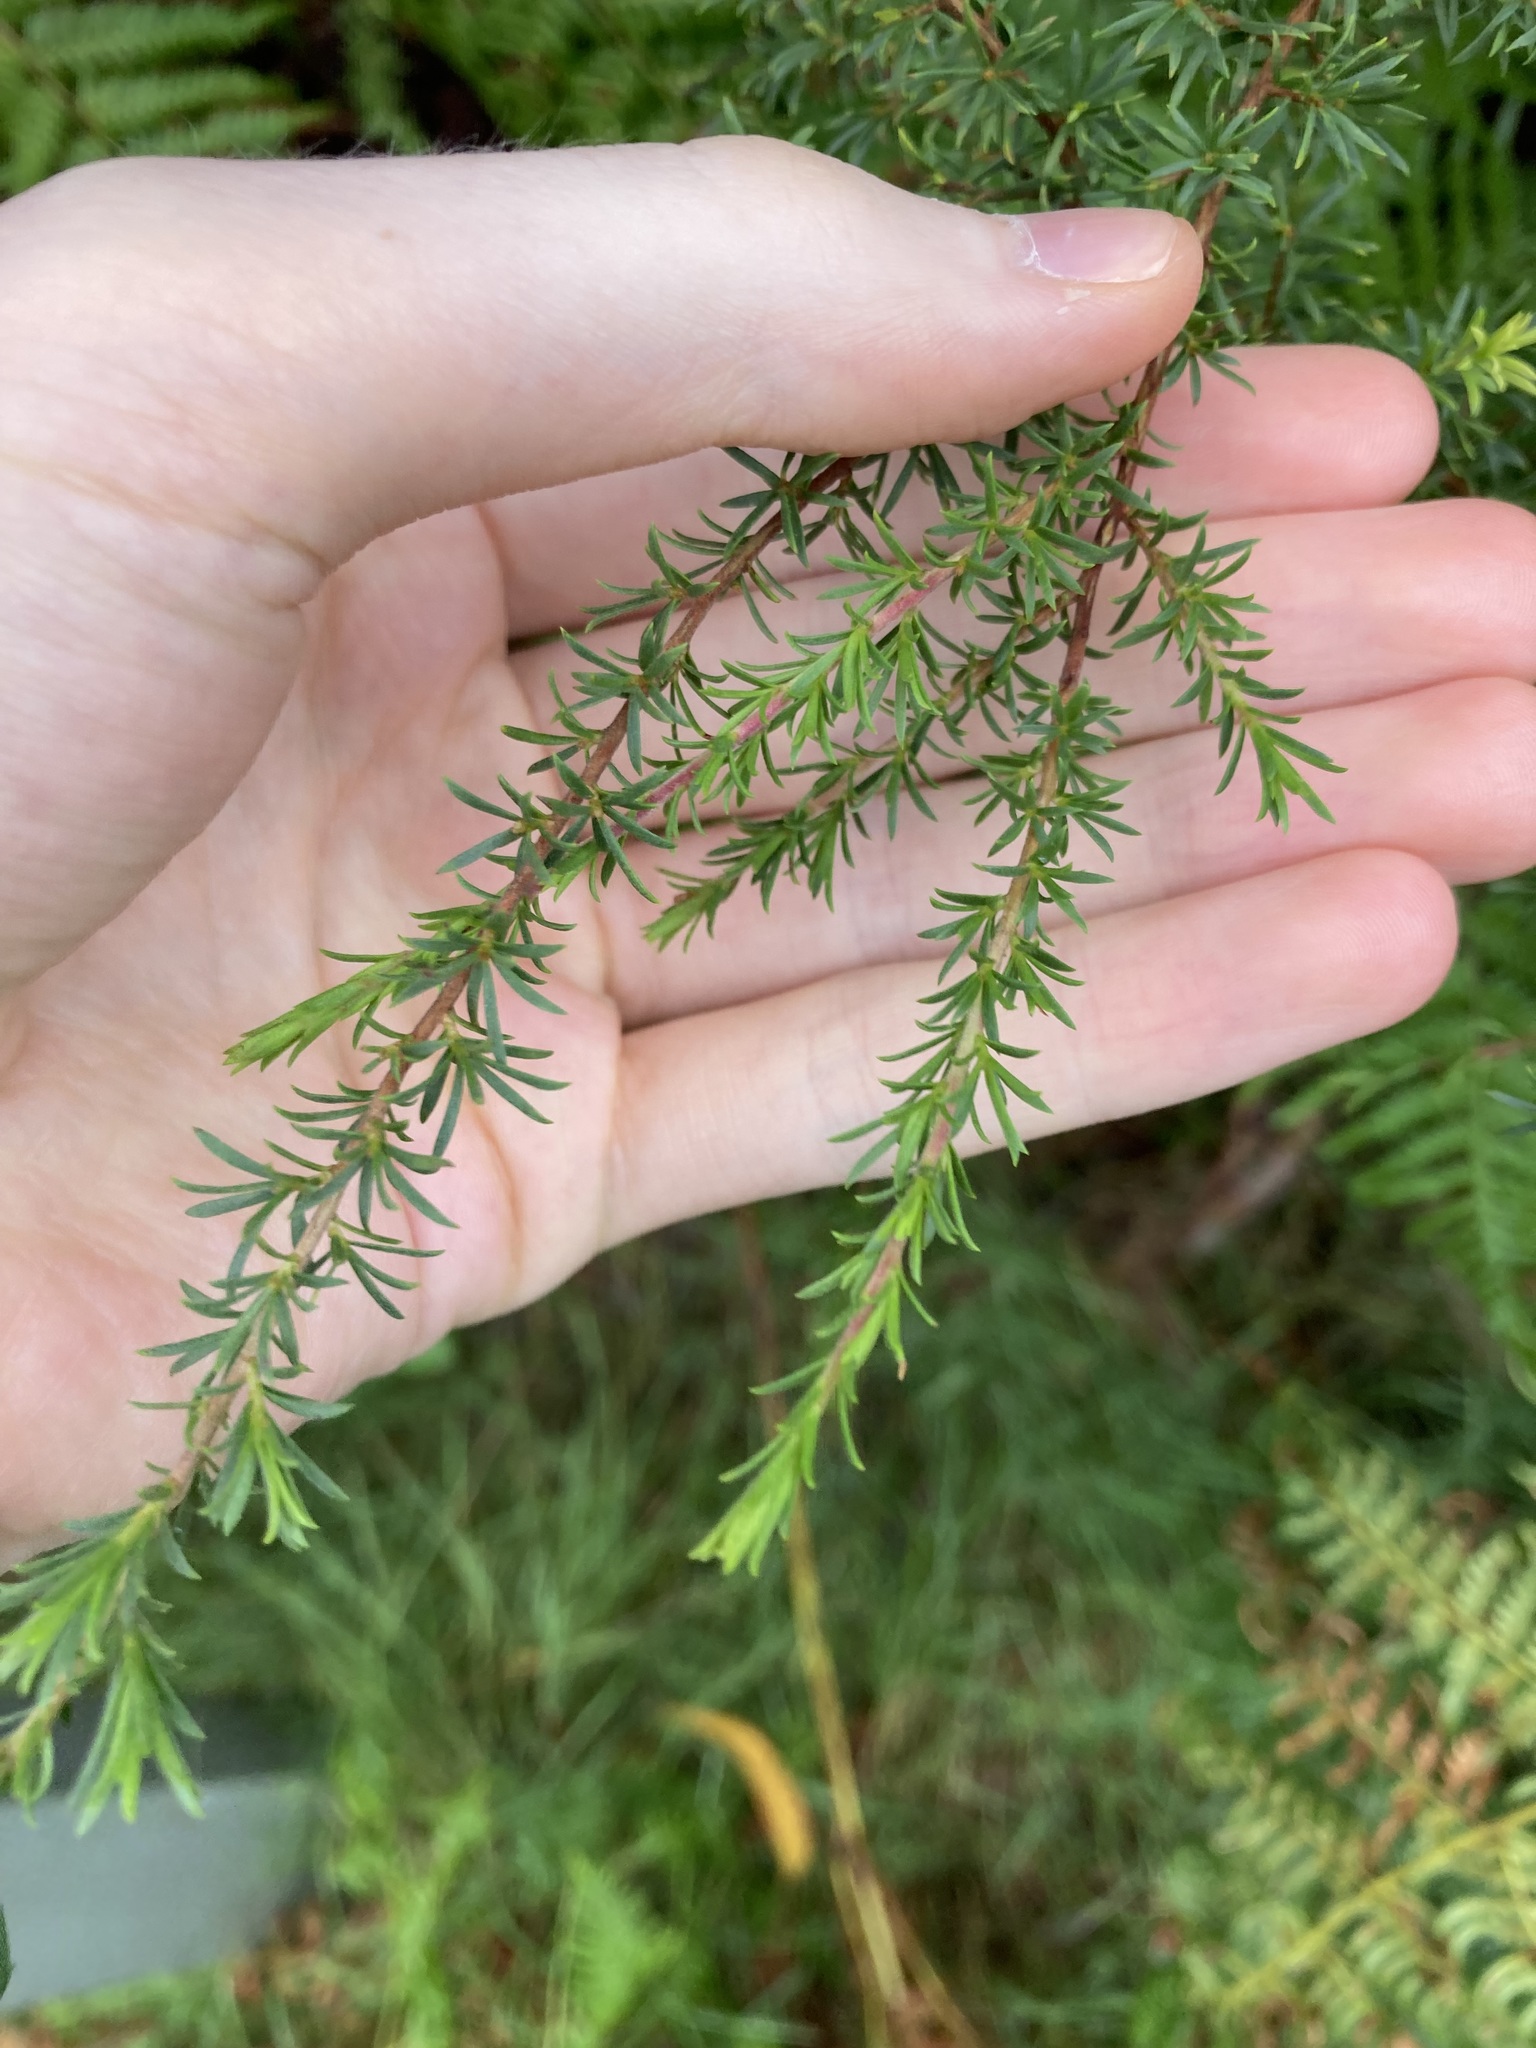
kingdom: Plantae
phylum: Tracheophyta
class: Magnoliopsida
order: Myrtales
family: Myrtaceae
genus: Kunzea
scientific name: Kunzea ambigua
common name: Tickbush
